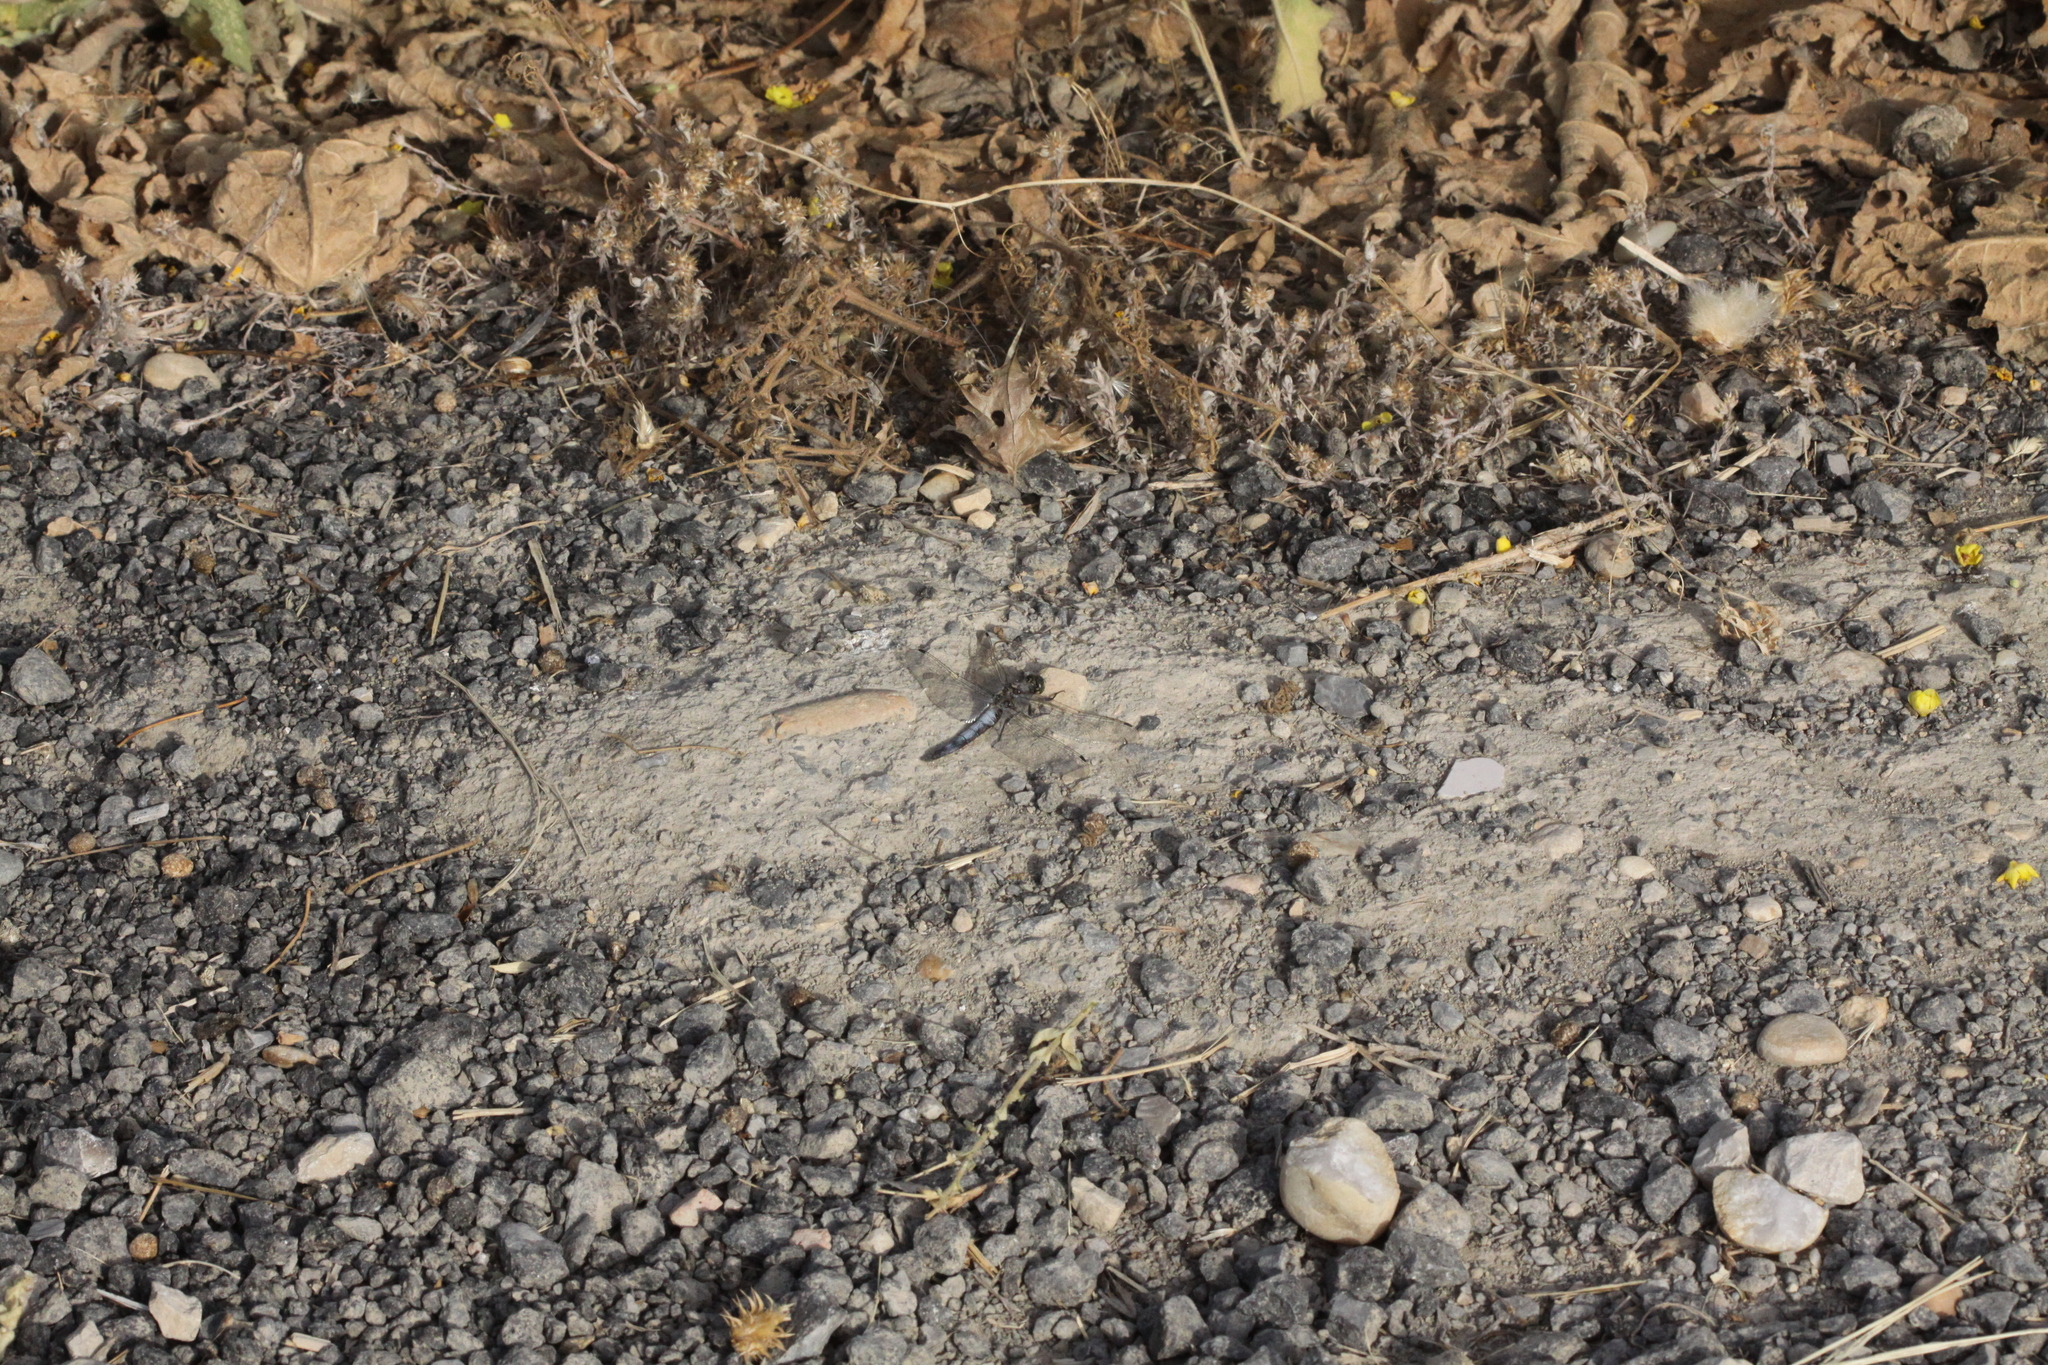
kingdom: Animalia
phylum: Arthropoda
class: Insecta
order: Odonata
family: Libellulidae
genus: Orthetrum
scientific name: Orthetrum cancellatum
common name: Black-tailed skimmer
